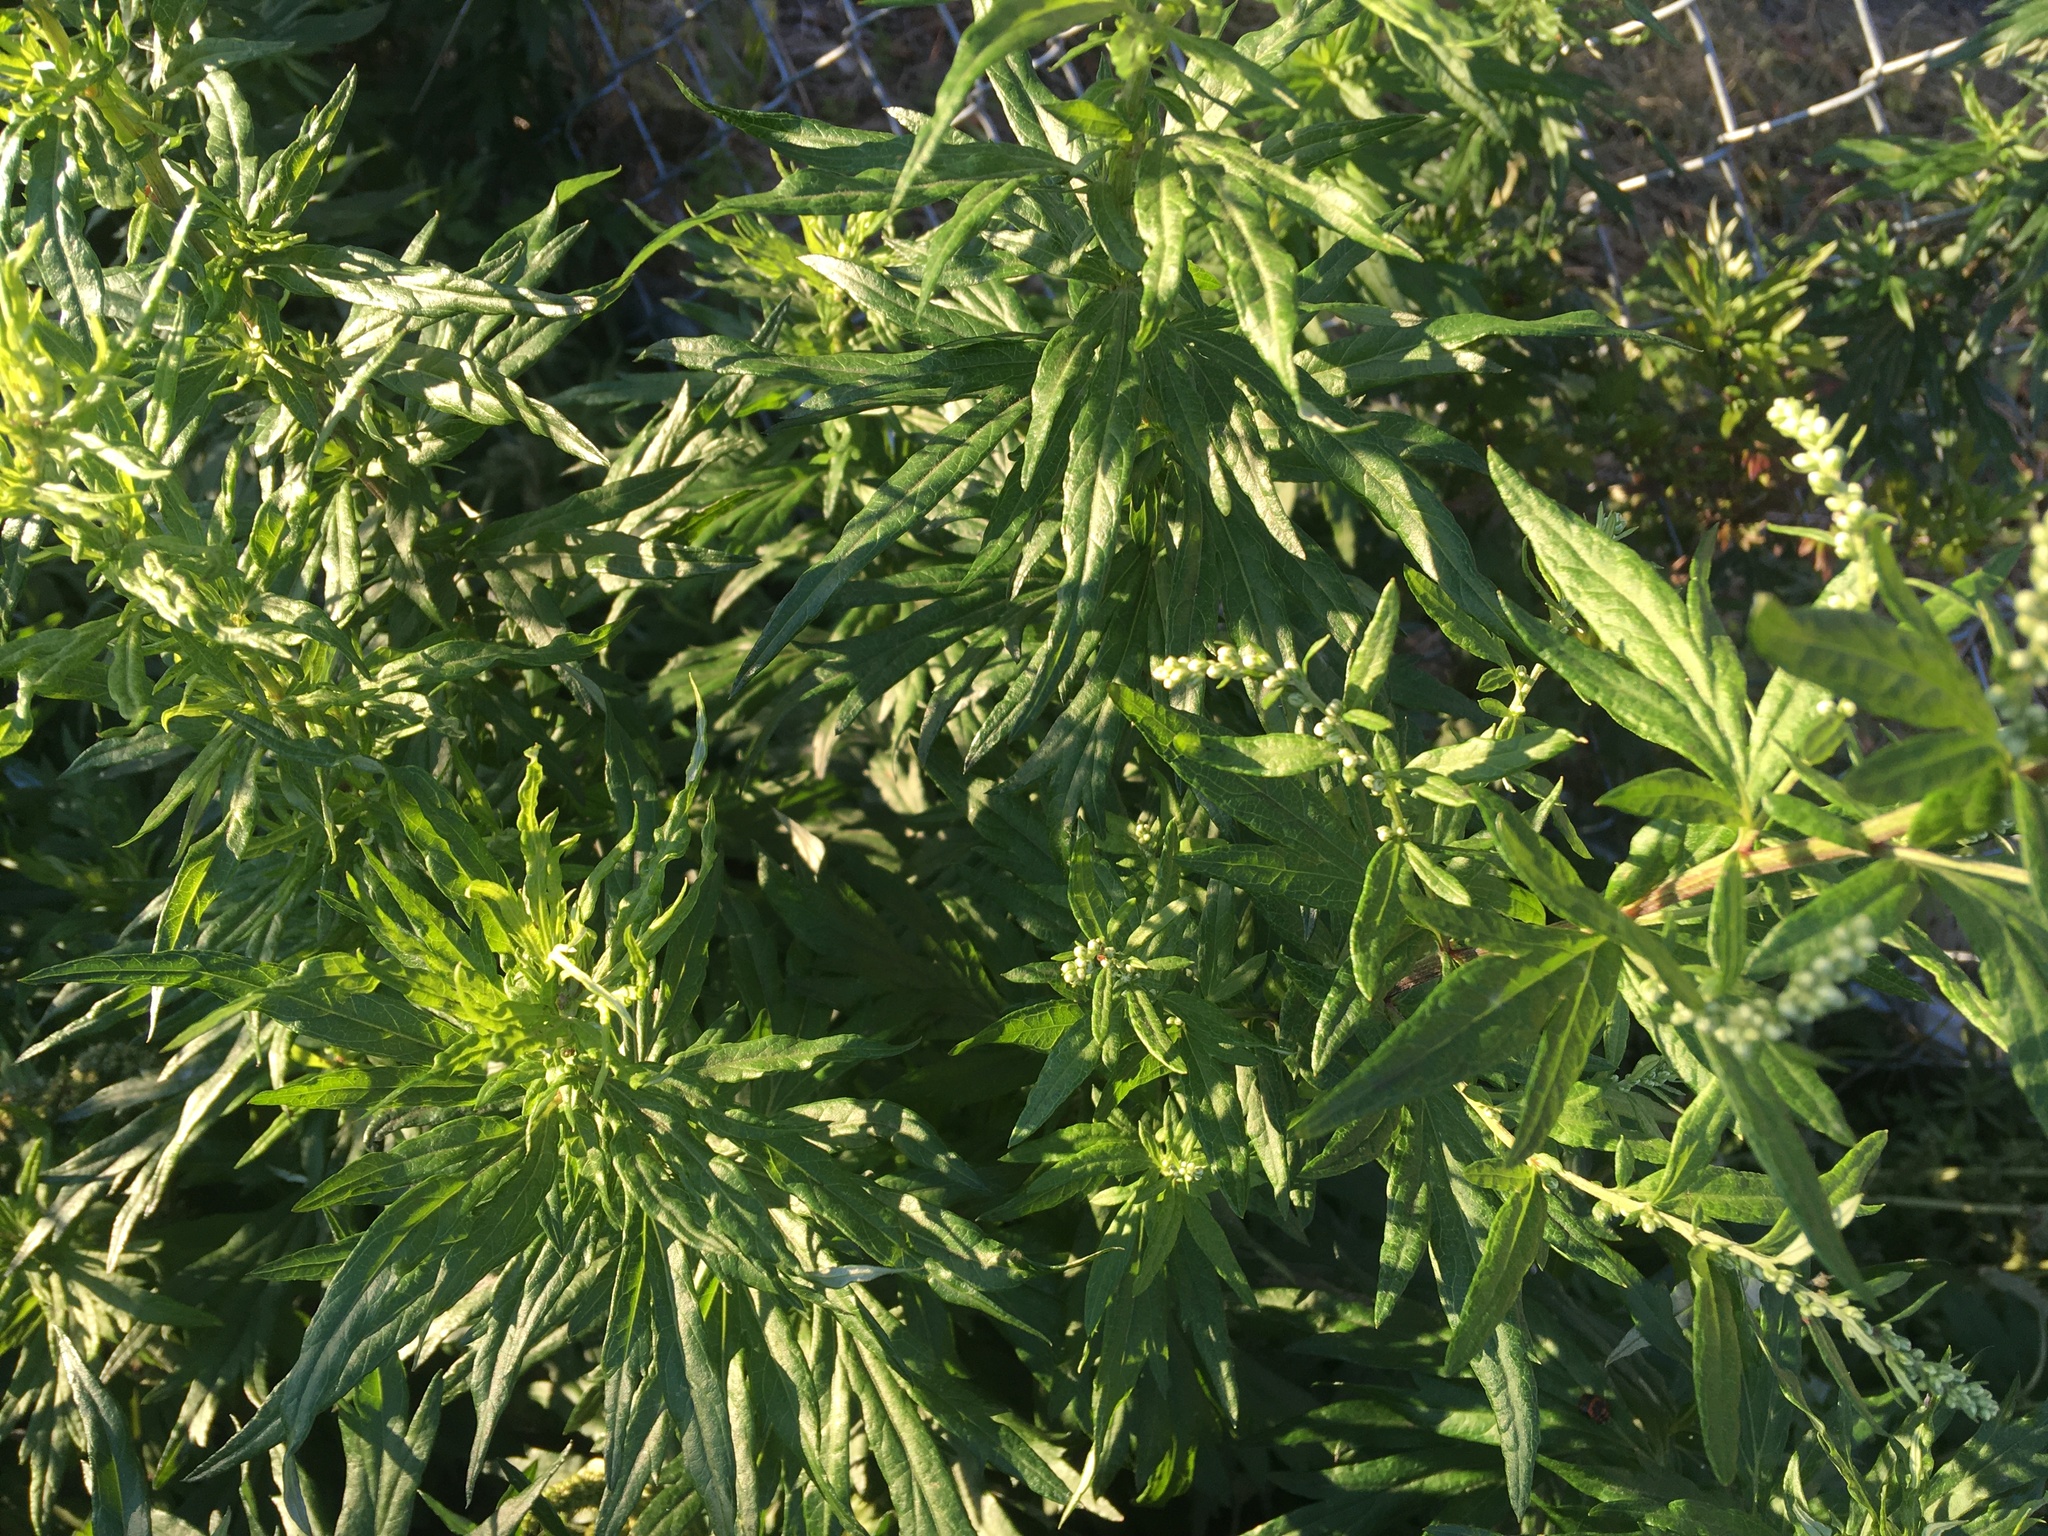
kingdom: Plantae
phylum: Tracheophyta
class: Magnoliopsida
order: Asterales
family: Asteraceae
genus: Artemisia
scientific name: Artemisia vulgaris
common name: Mugwort
